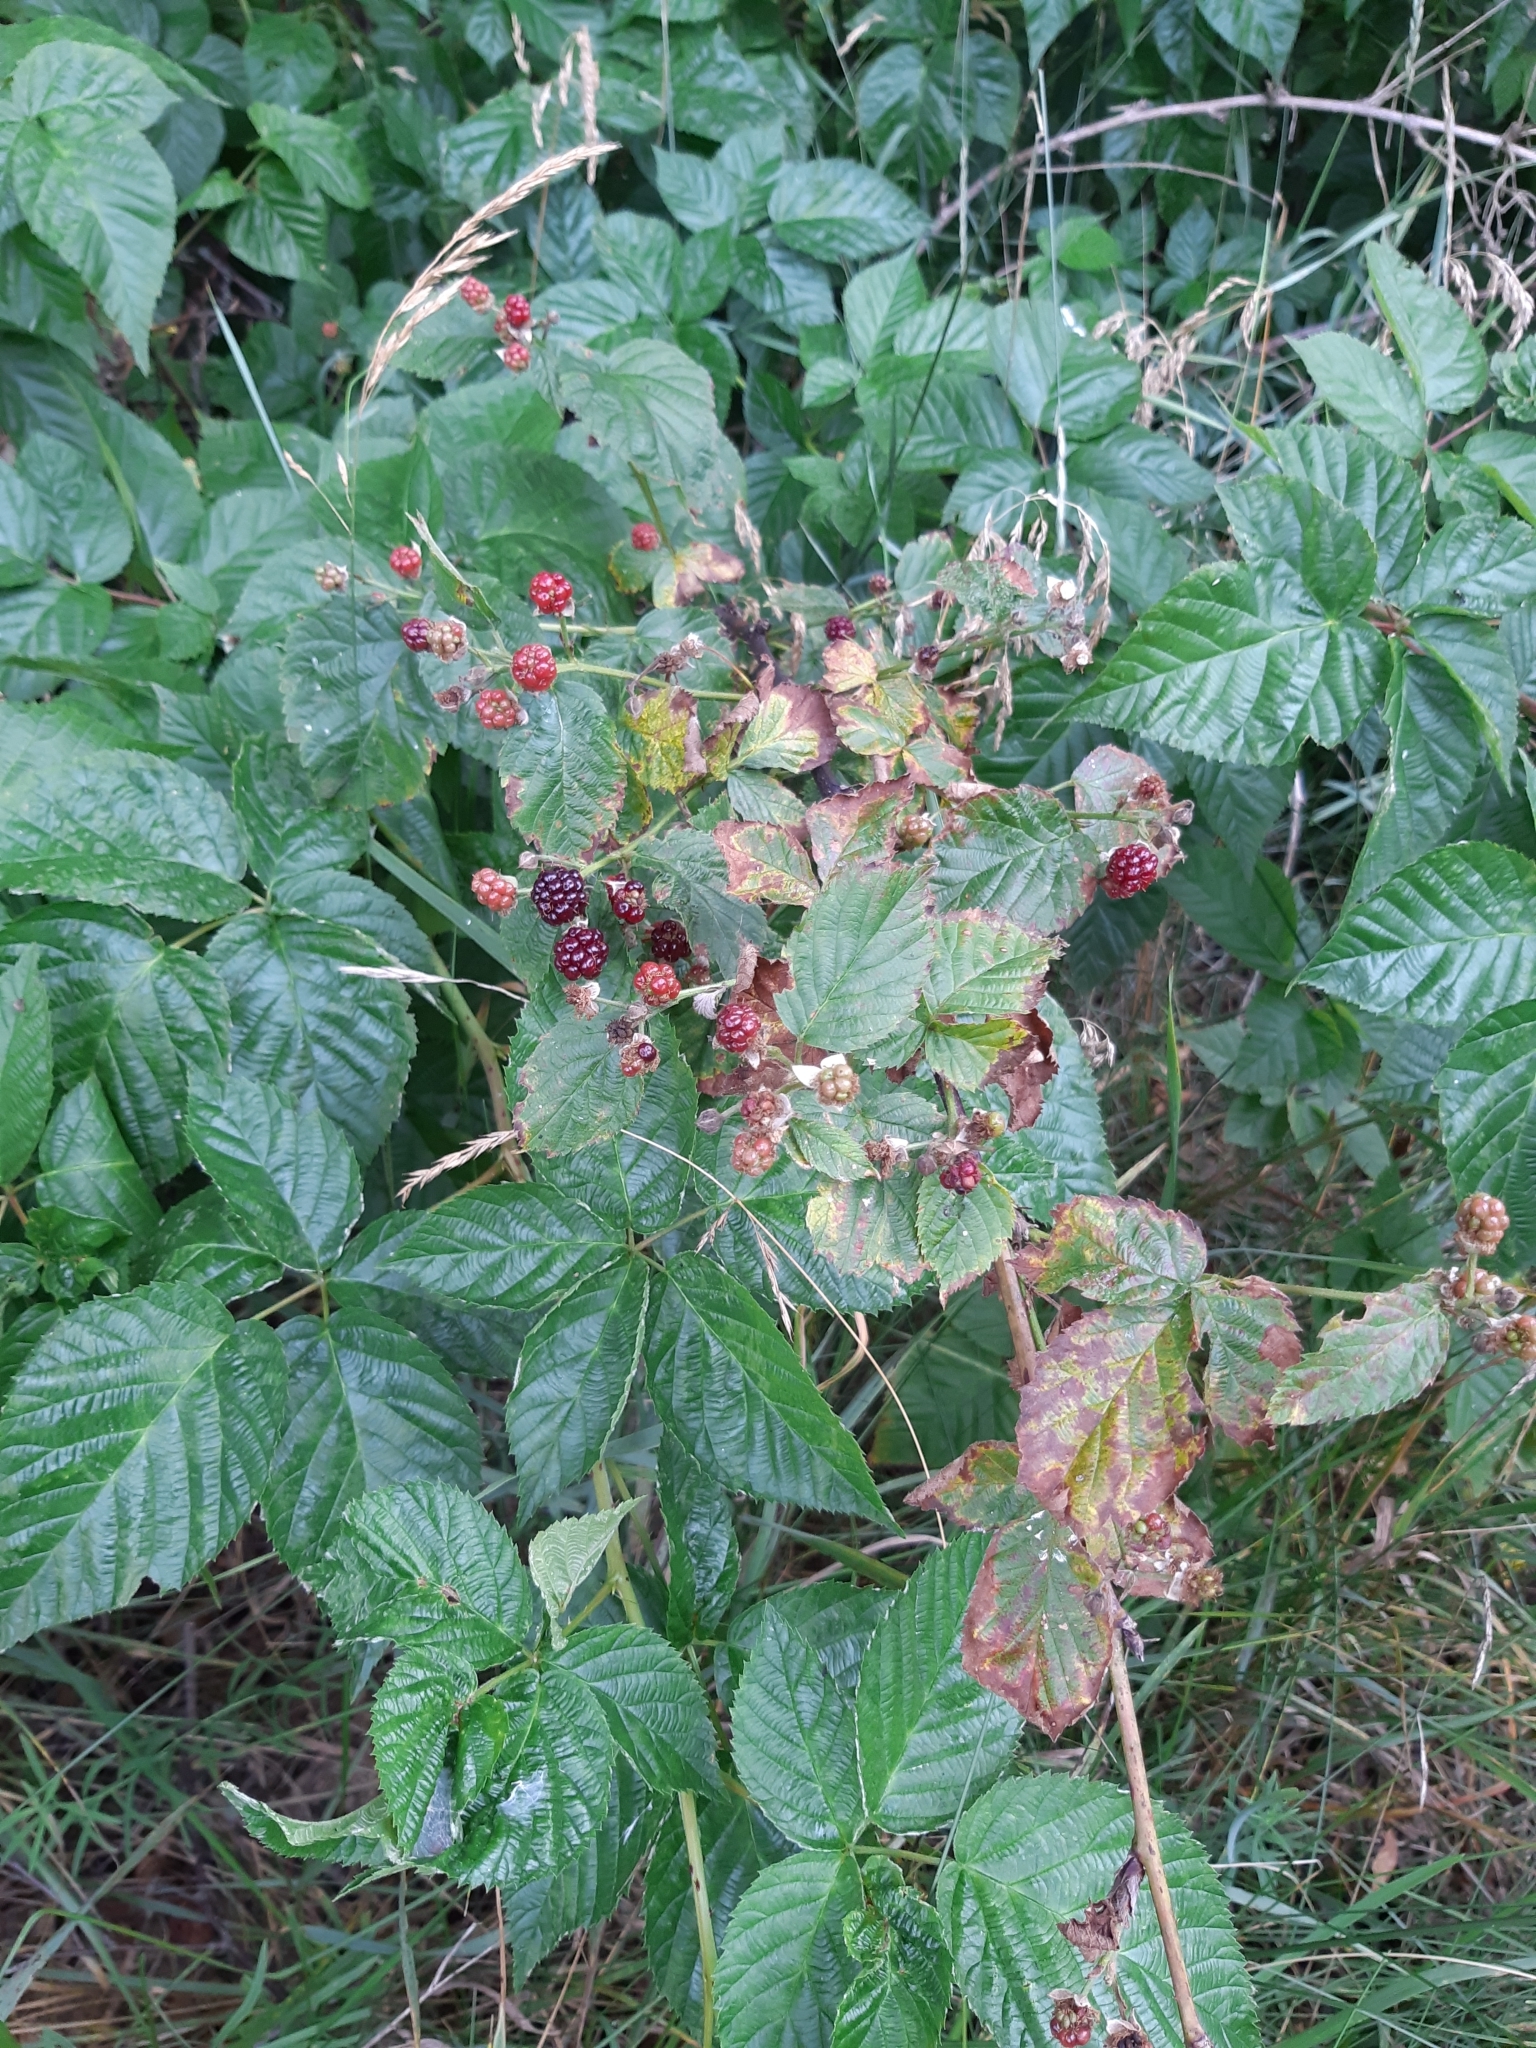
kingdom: Plantae
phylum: Tracheophyta
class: Magnoliopsida
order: Rosales
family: Rosaceae
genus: Rubus
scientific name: Rubus polonicus
